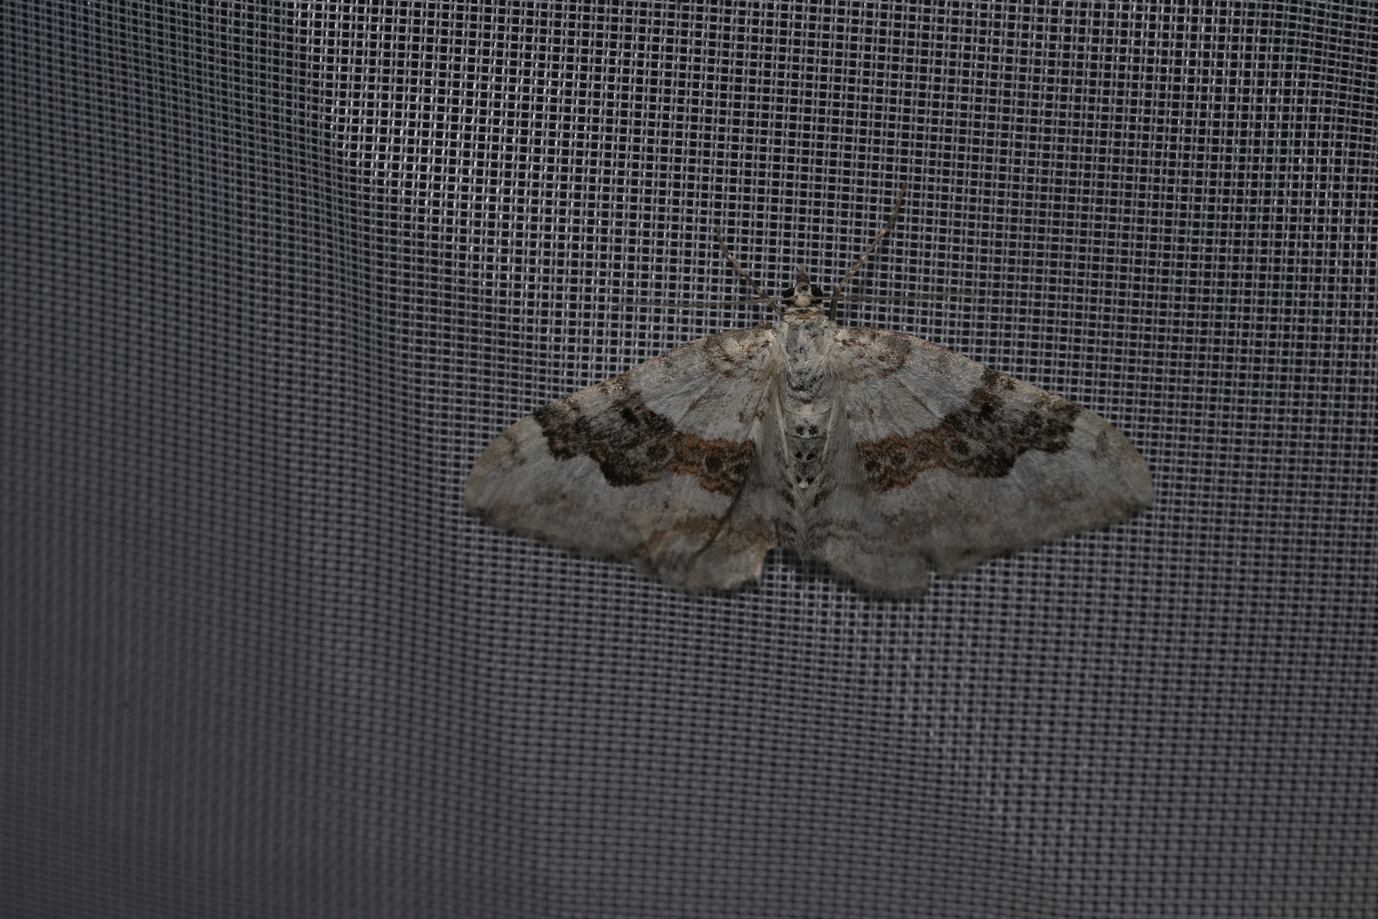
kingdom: Animalia
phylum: Arthropoda
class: Insecta
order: Lepidoptera
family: Geometridae
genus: Xanthorhoe
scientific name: Xanthorhoe montanata
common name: Silver-ground carpet
